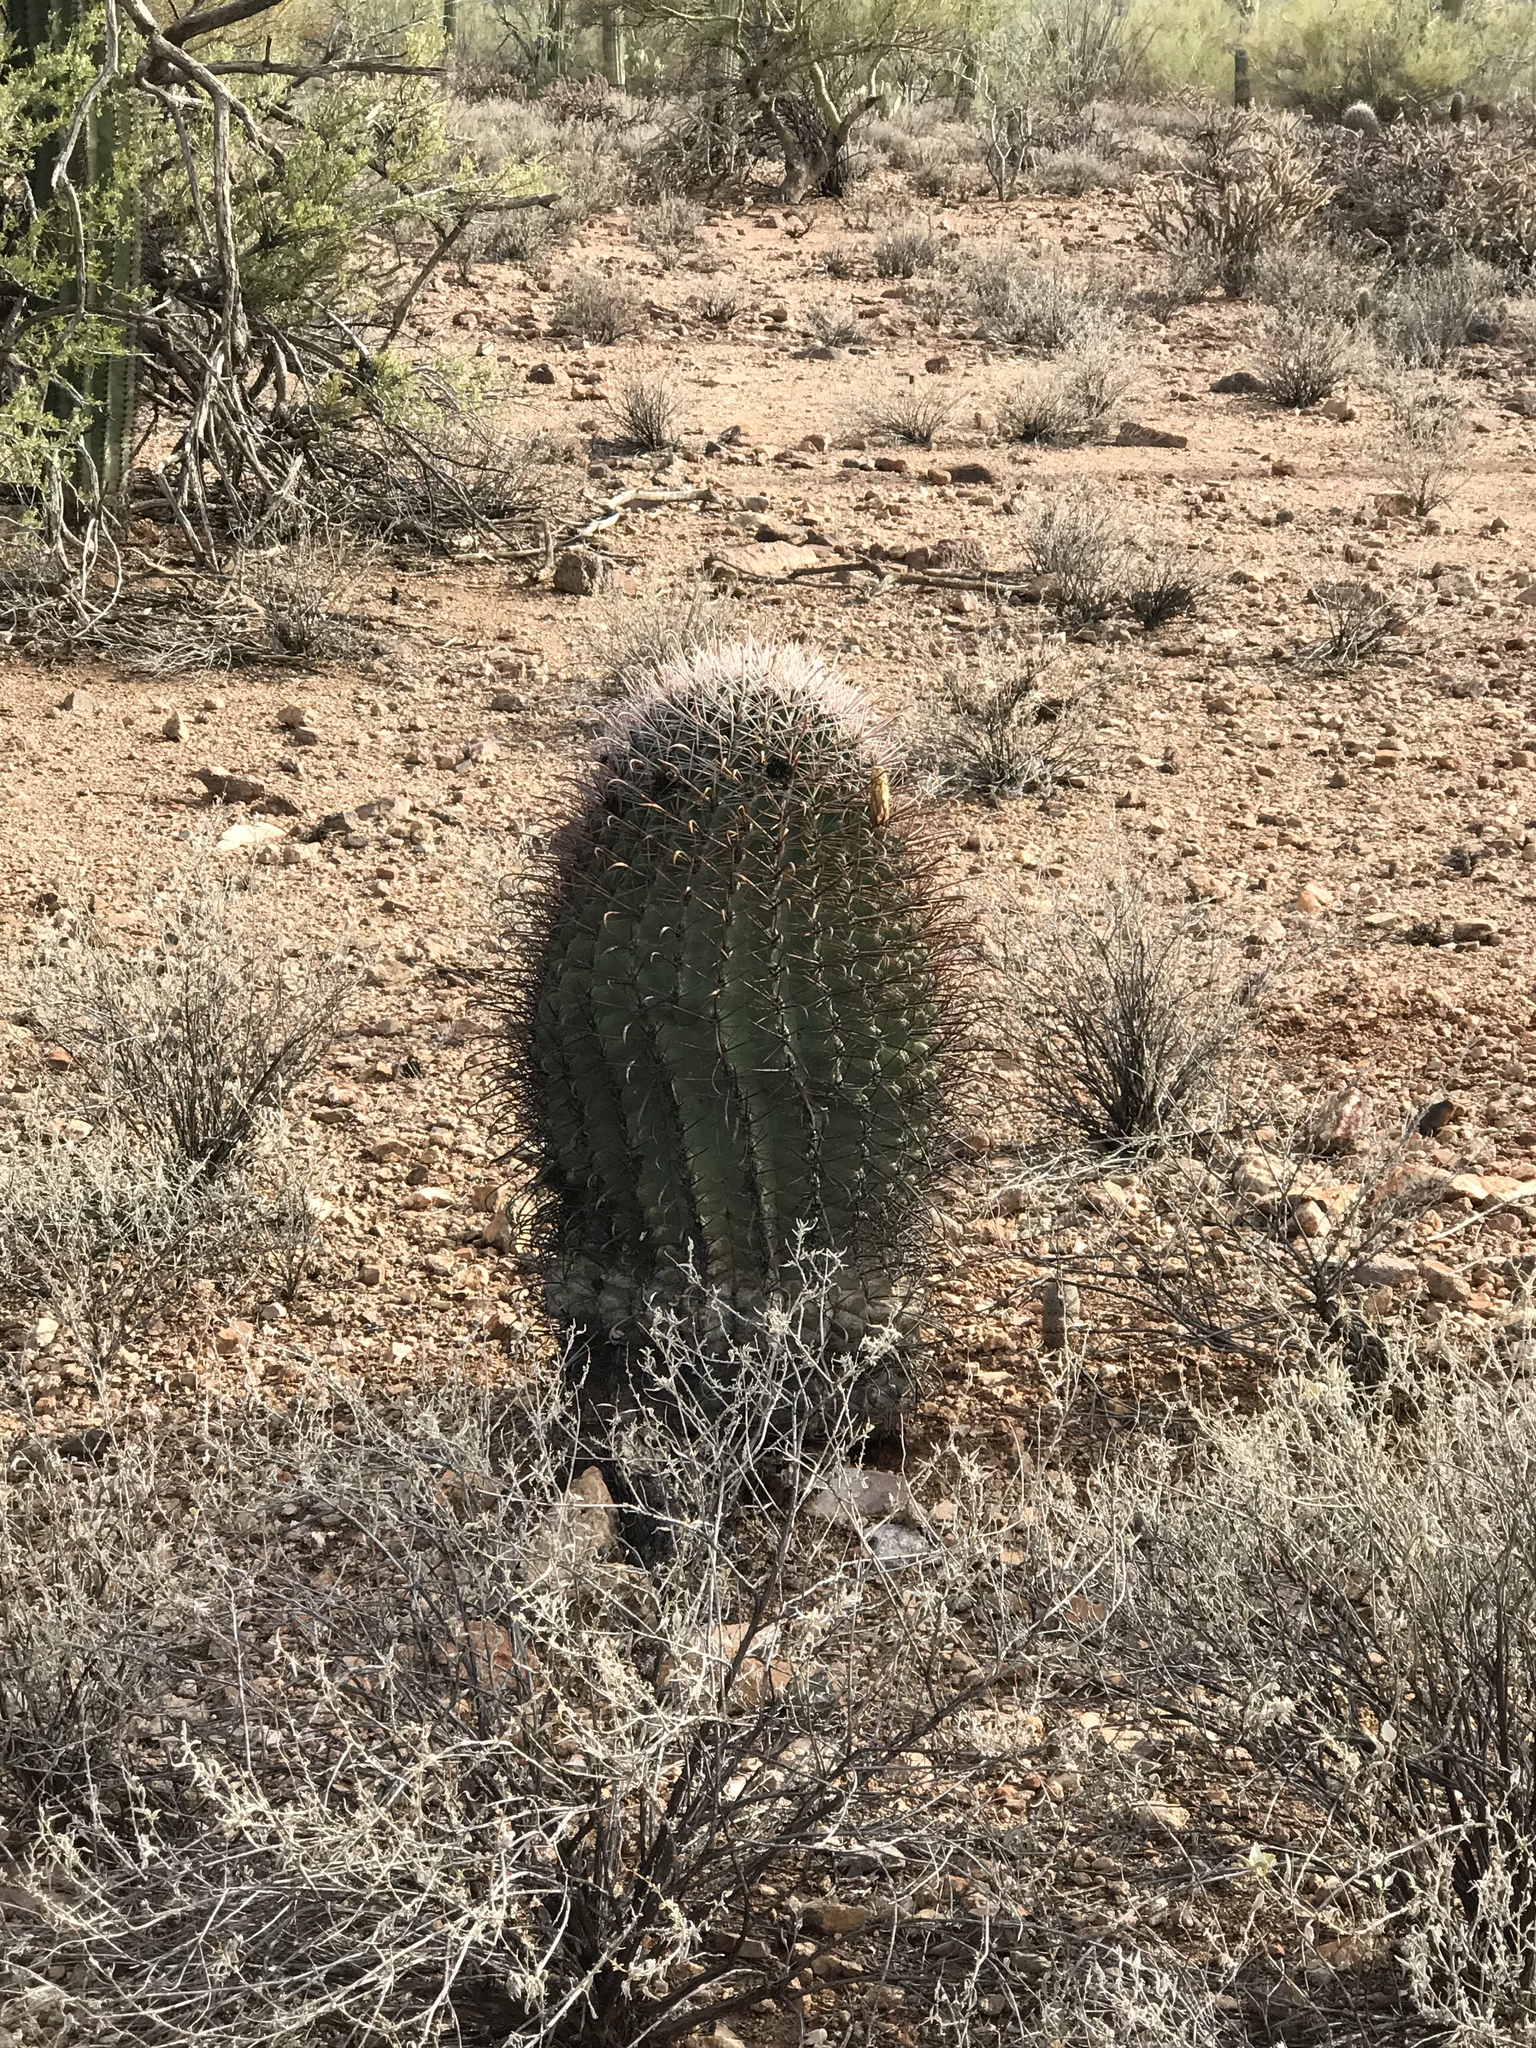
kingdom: Plantae
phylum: Tracheophyta
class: Magnoliopsida
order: Caryophyllales
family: Cactaceae
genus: Ferocactus
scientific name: Ferocactus wislizeni
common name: Candy barrel cactus
